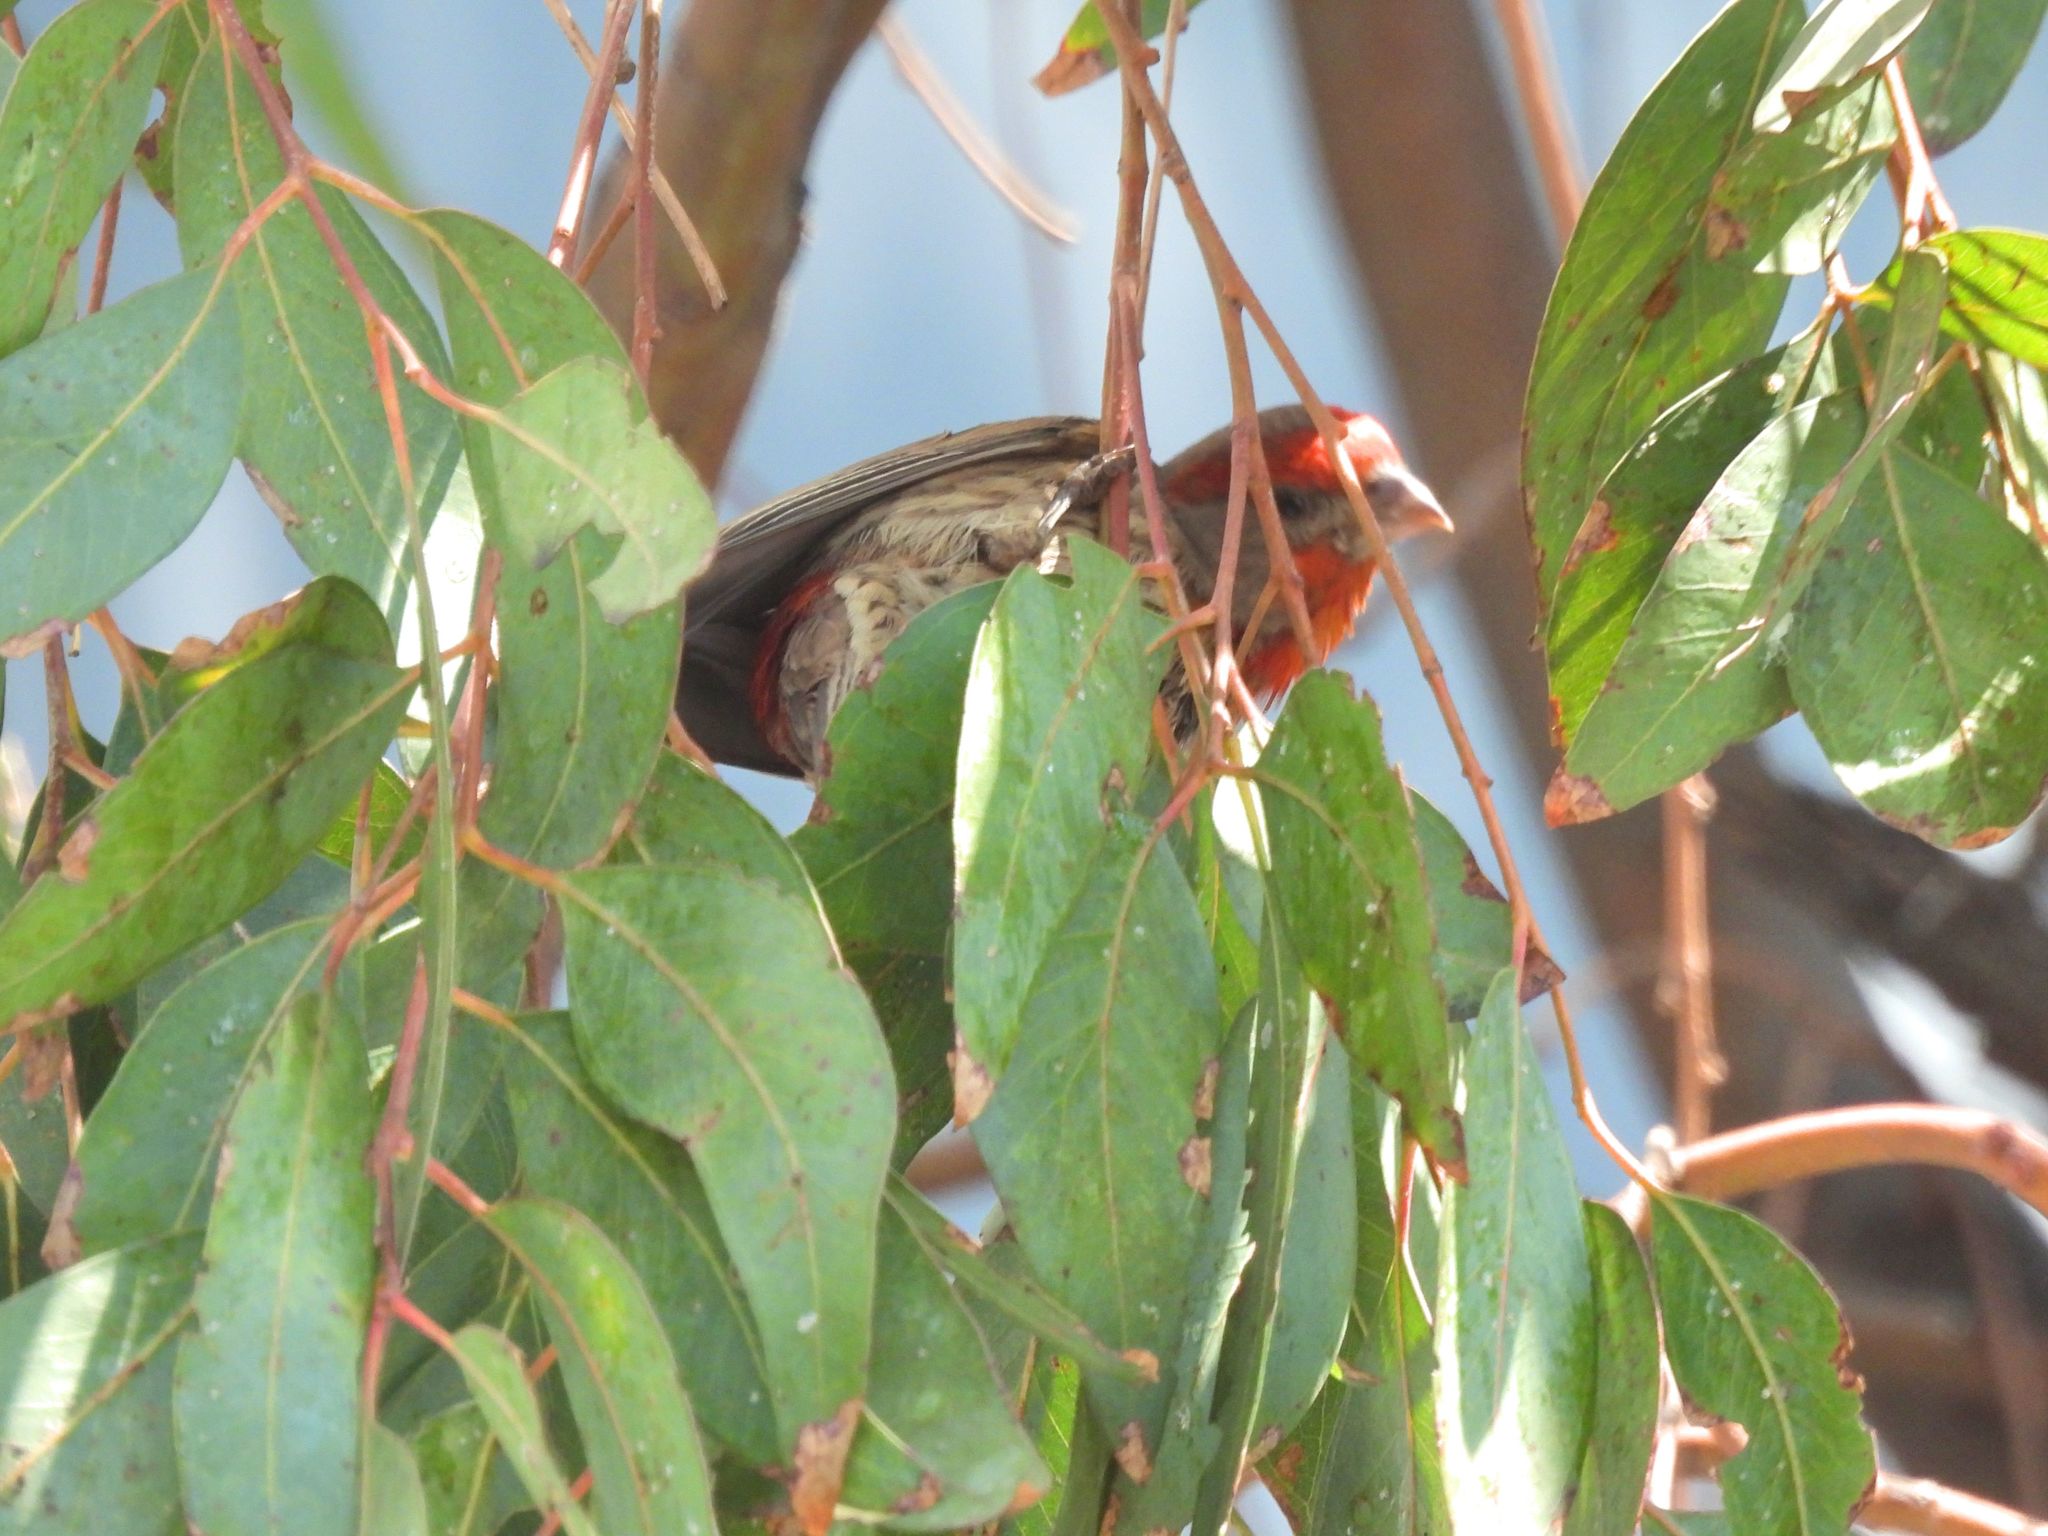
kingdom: Animalia
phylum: Chordata
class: Aves
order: Passeriformes
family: Fringillidae
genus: Haemorhous
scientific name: Haemorhous mexicanus
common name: House finch
